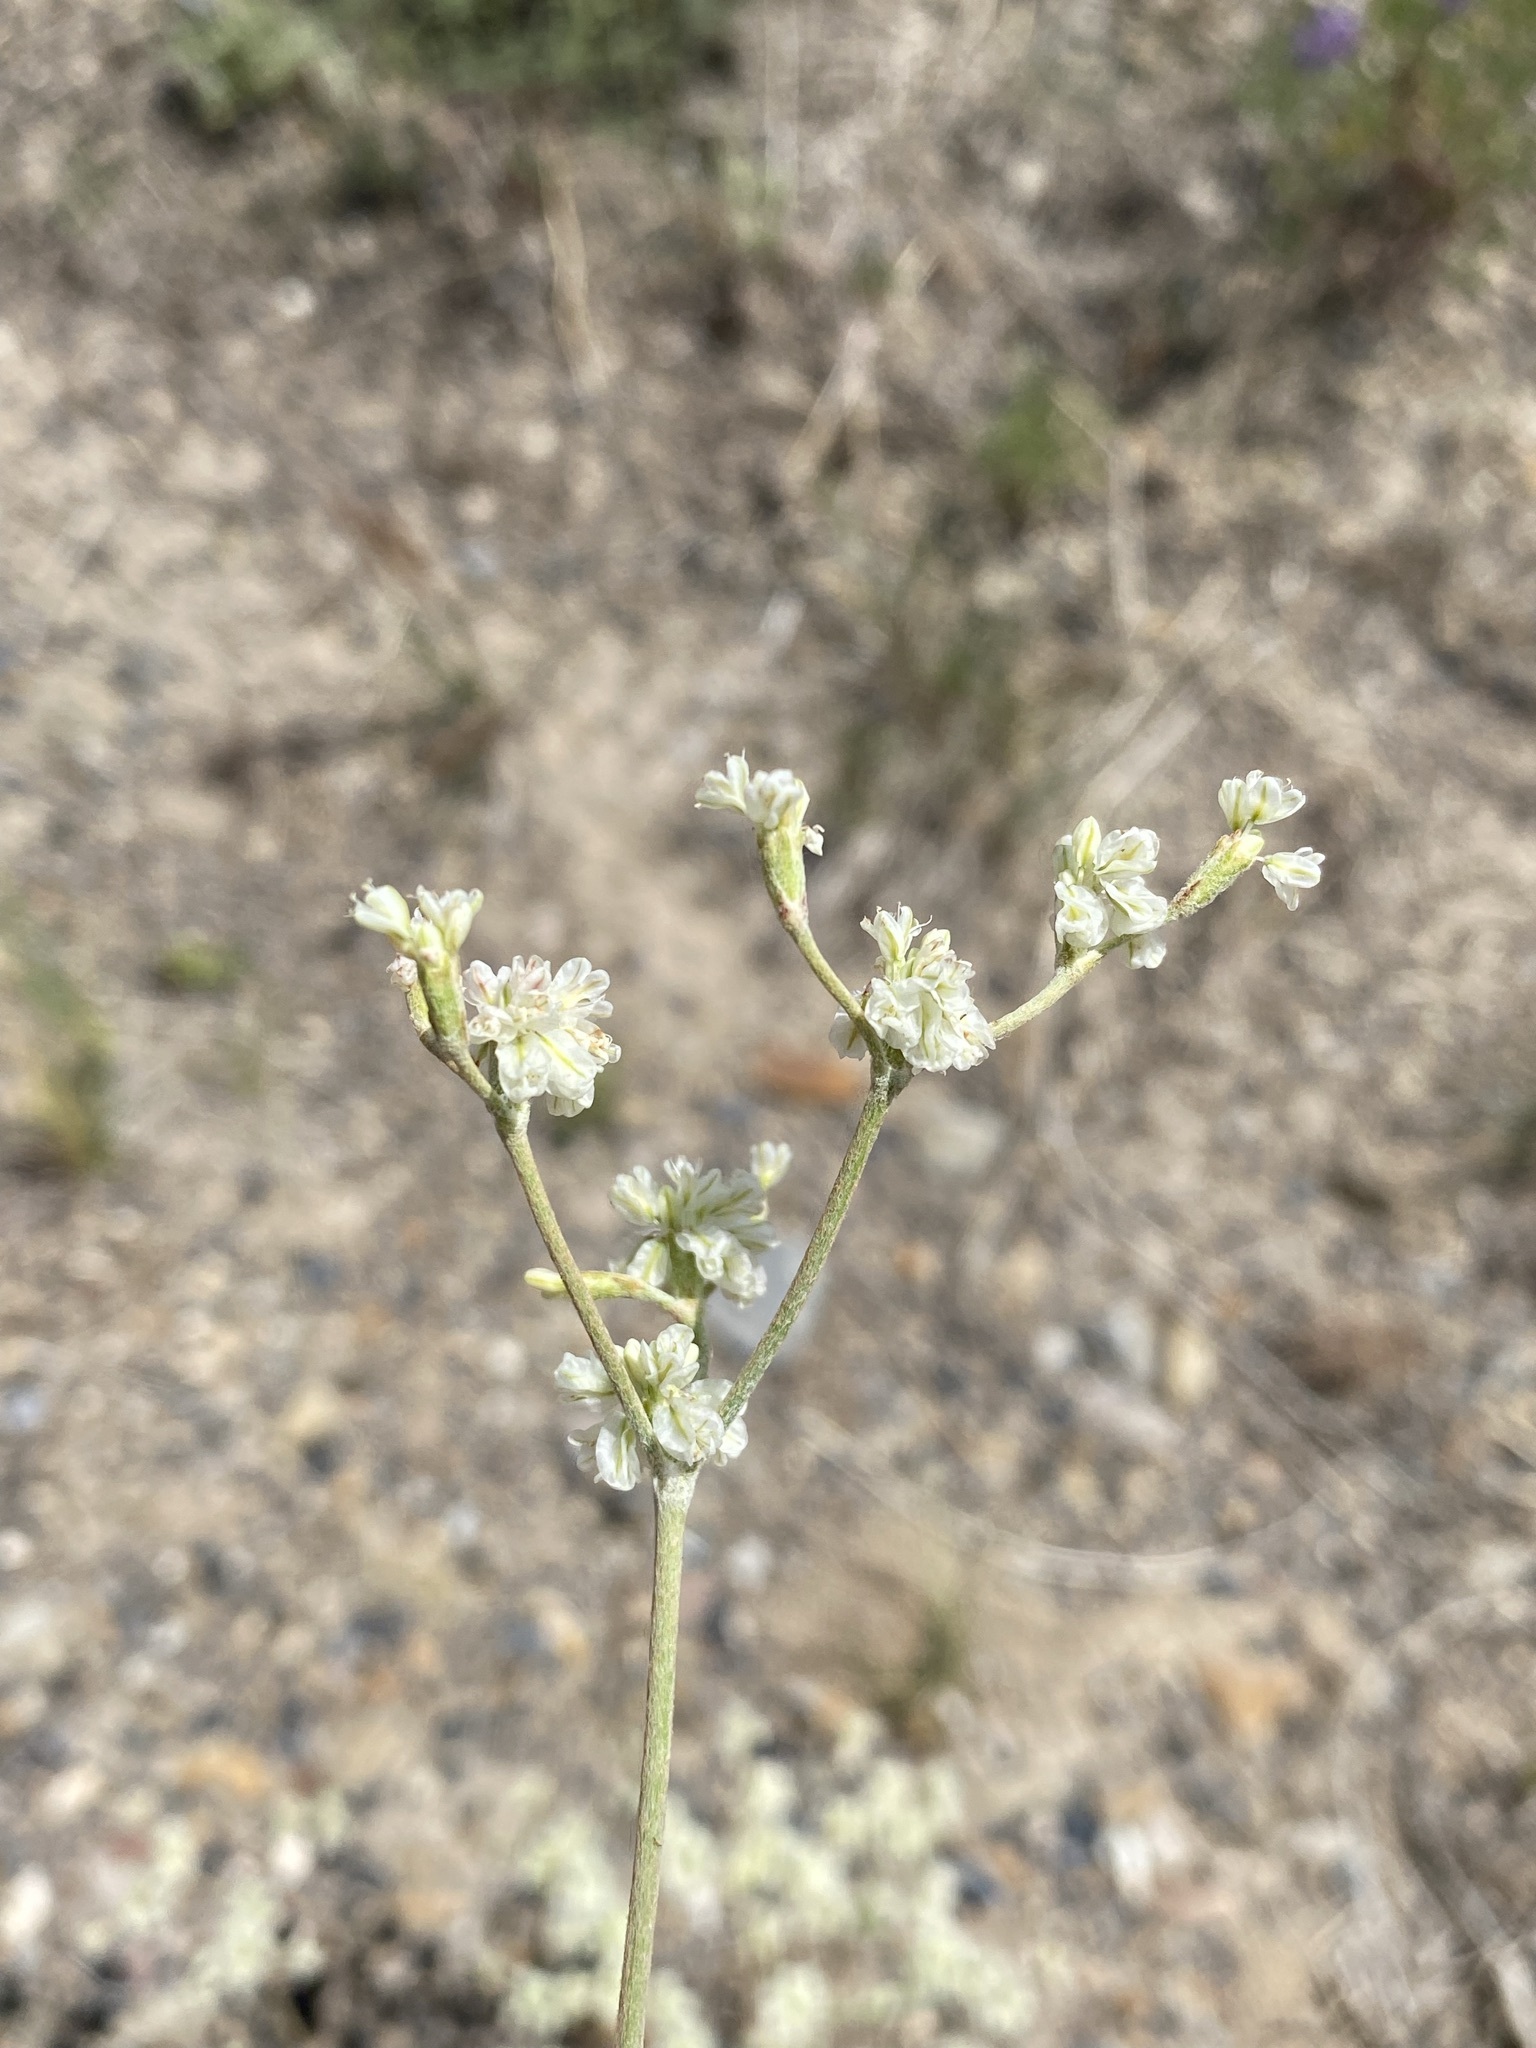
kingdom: Plantae
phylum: Tracheophyta
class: Magnoliopsida
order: Caryophyllales
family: Polygonaceae
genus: Eriogonum
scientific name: Eriogonum strictum
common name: Blue mountain buckwheat
